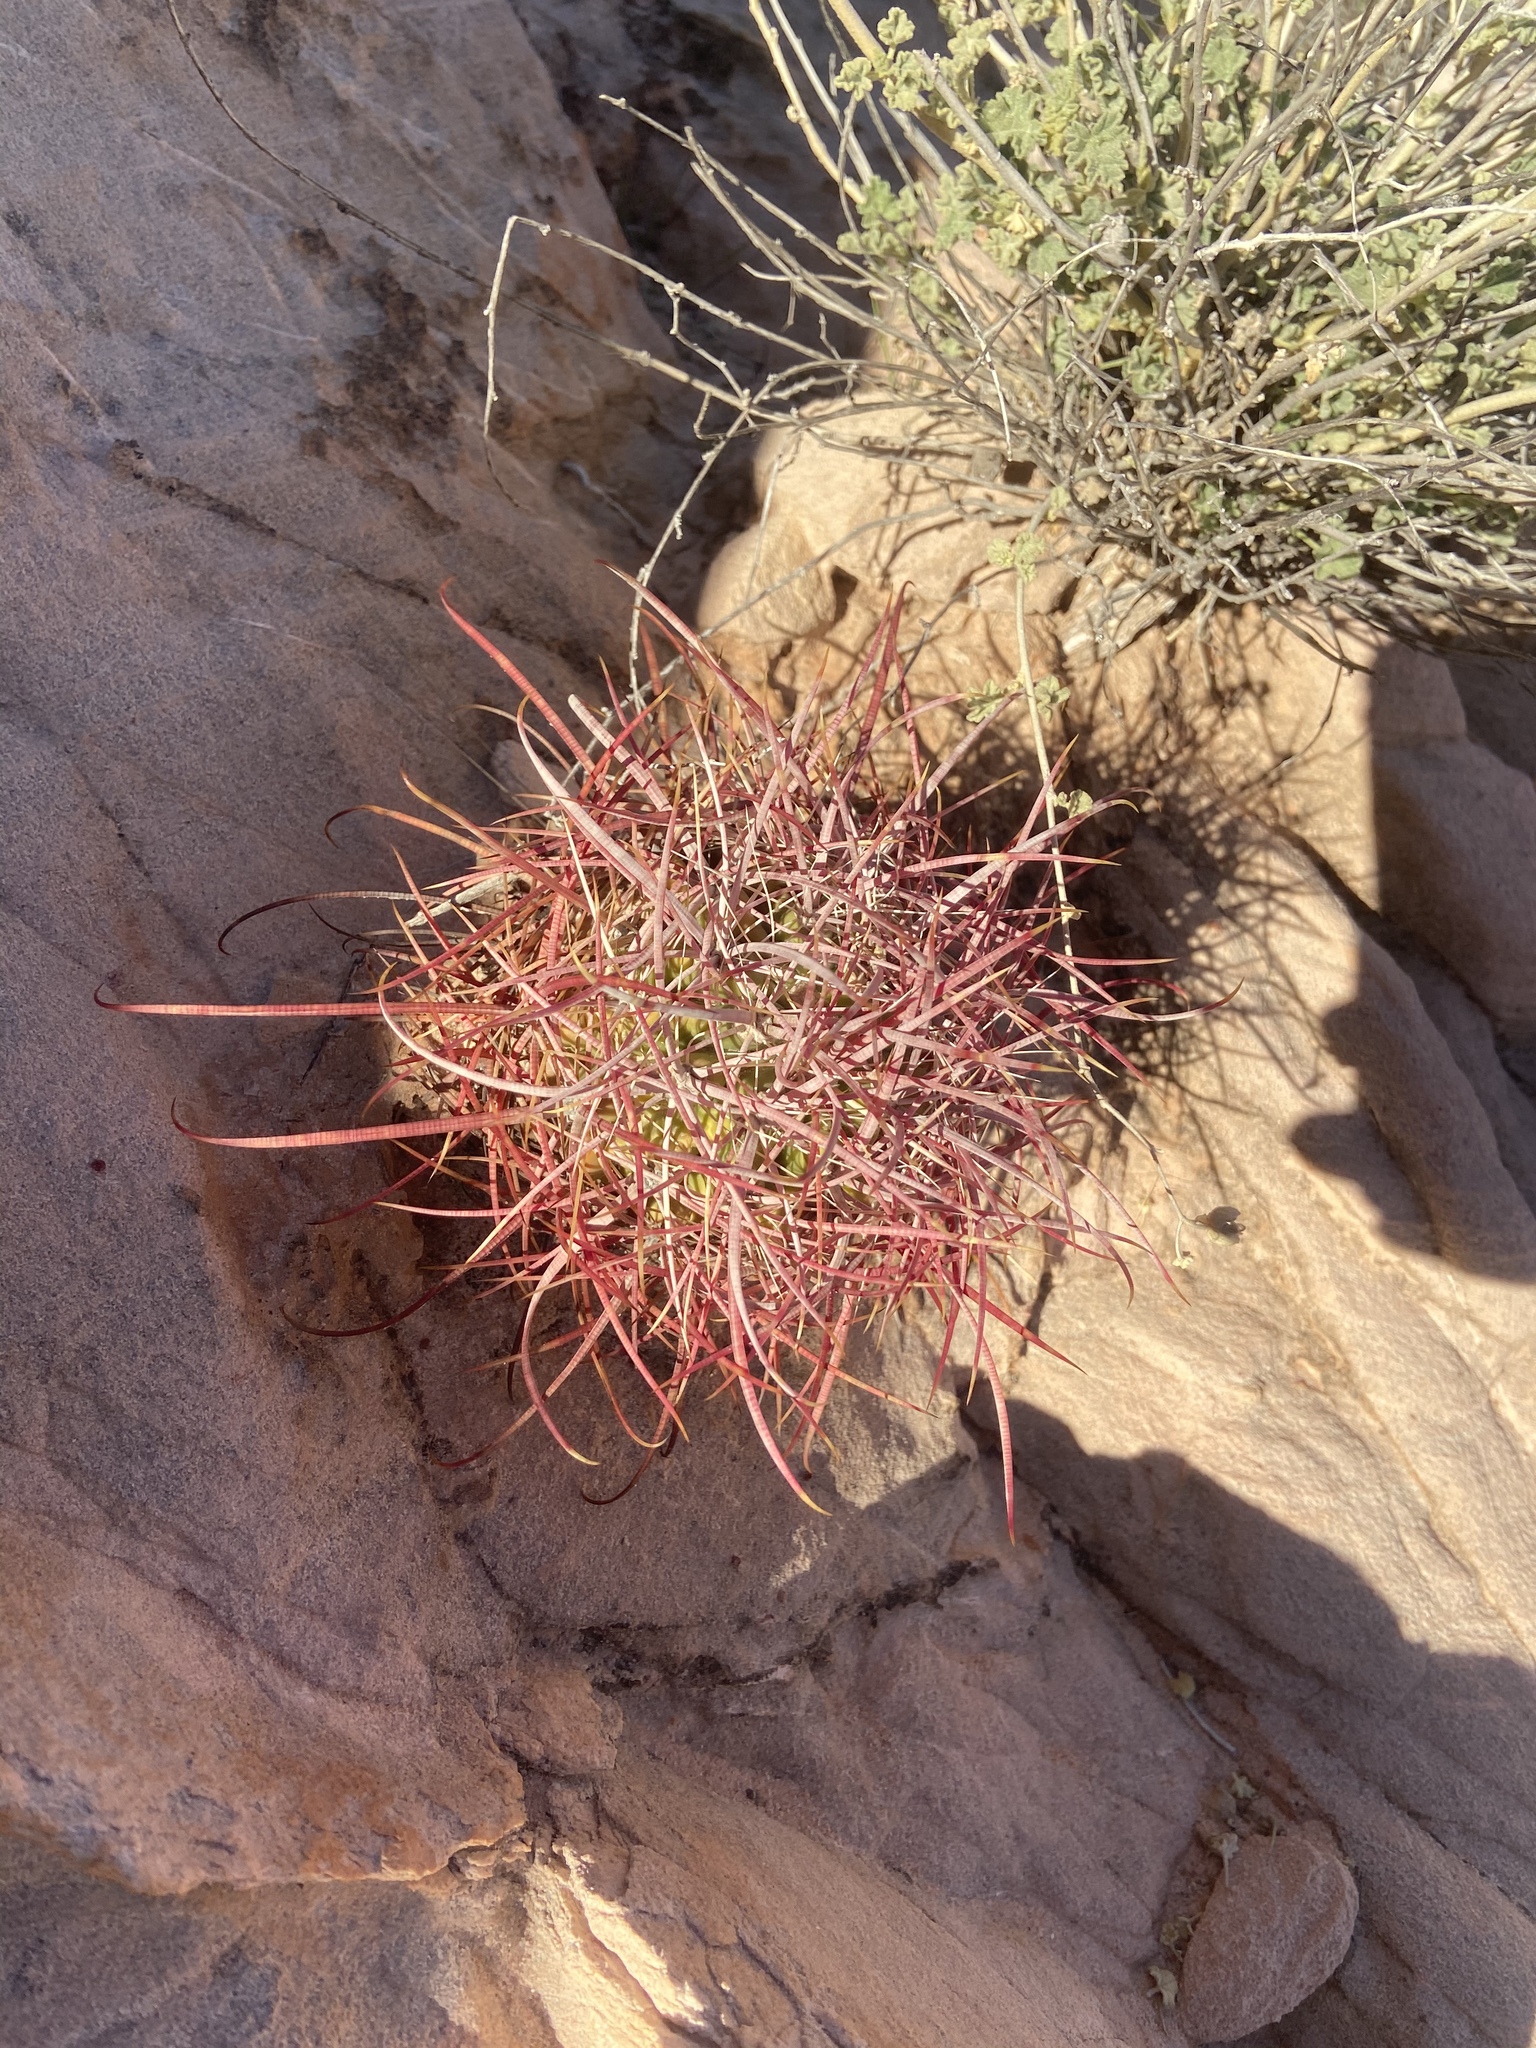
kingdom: Plantae
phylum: Tracheophyta
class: Magnoliopsida
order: Caryophyllales
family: Cactaceae
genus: Ferocactus
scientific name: Ferocactus cylindraceus
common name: California barrel cactus
